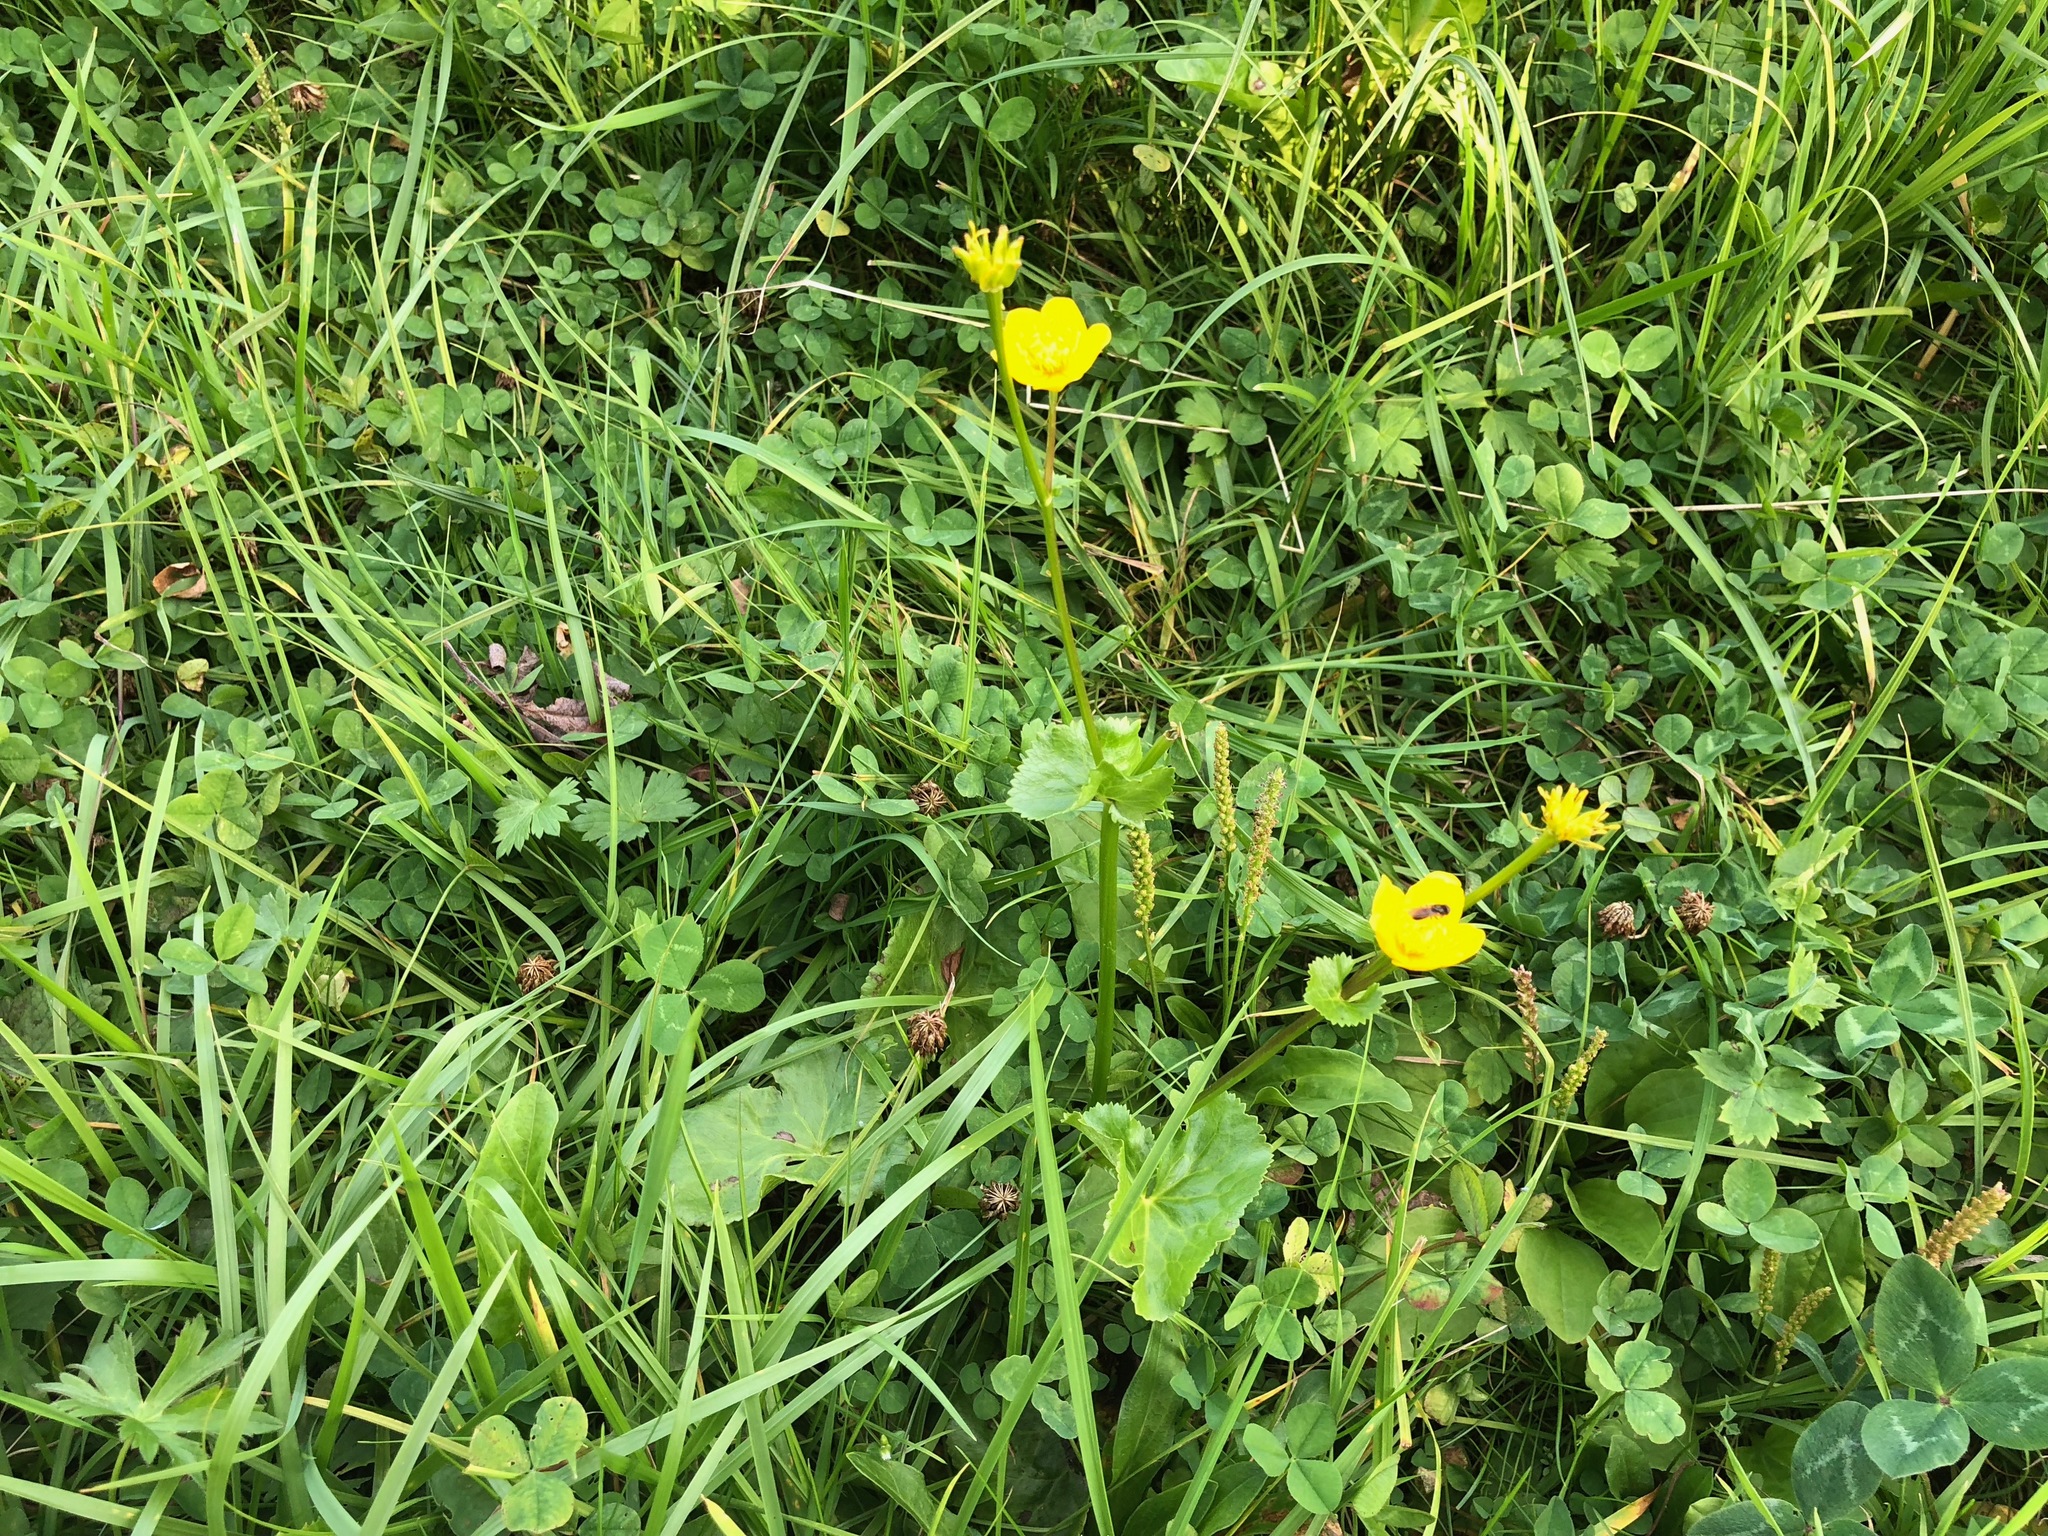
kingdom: Plantae
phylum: Tracheophyta
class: Magnoliopsida
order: Ranunculales
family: Ranunculaceae
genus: Caltha
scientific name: Caltha palustris
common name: Marsh marigold
